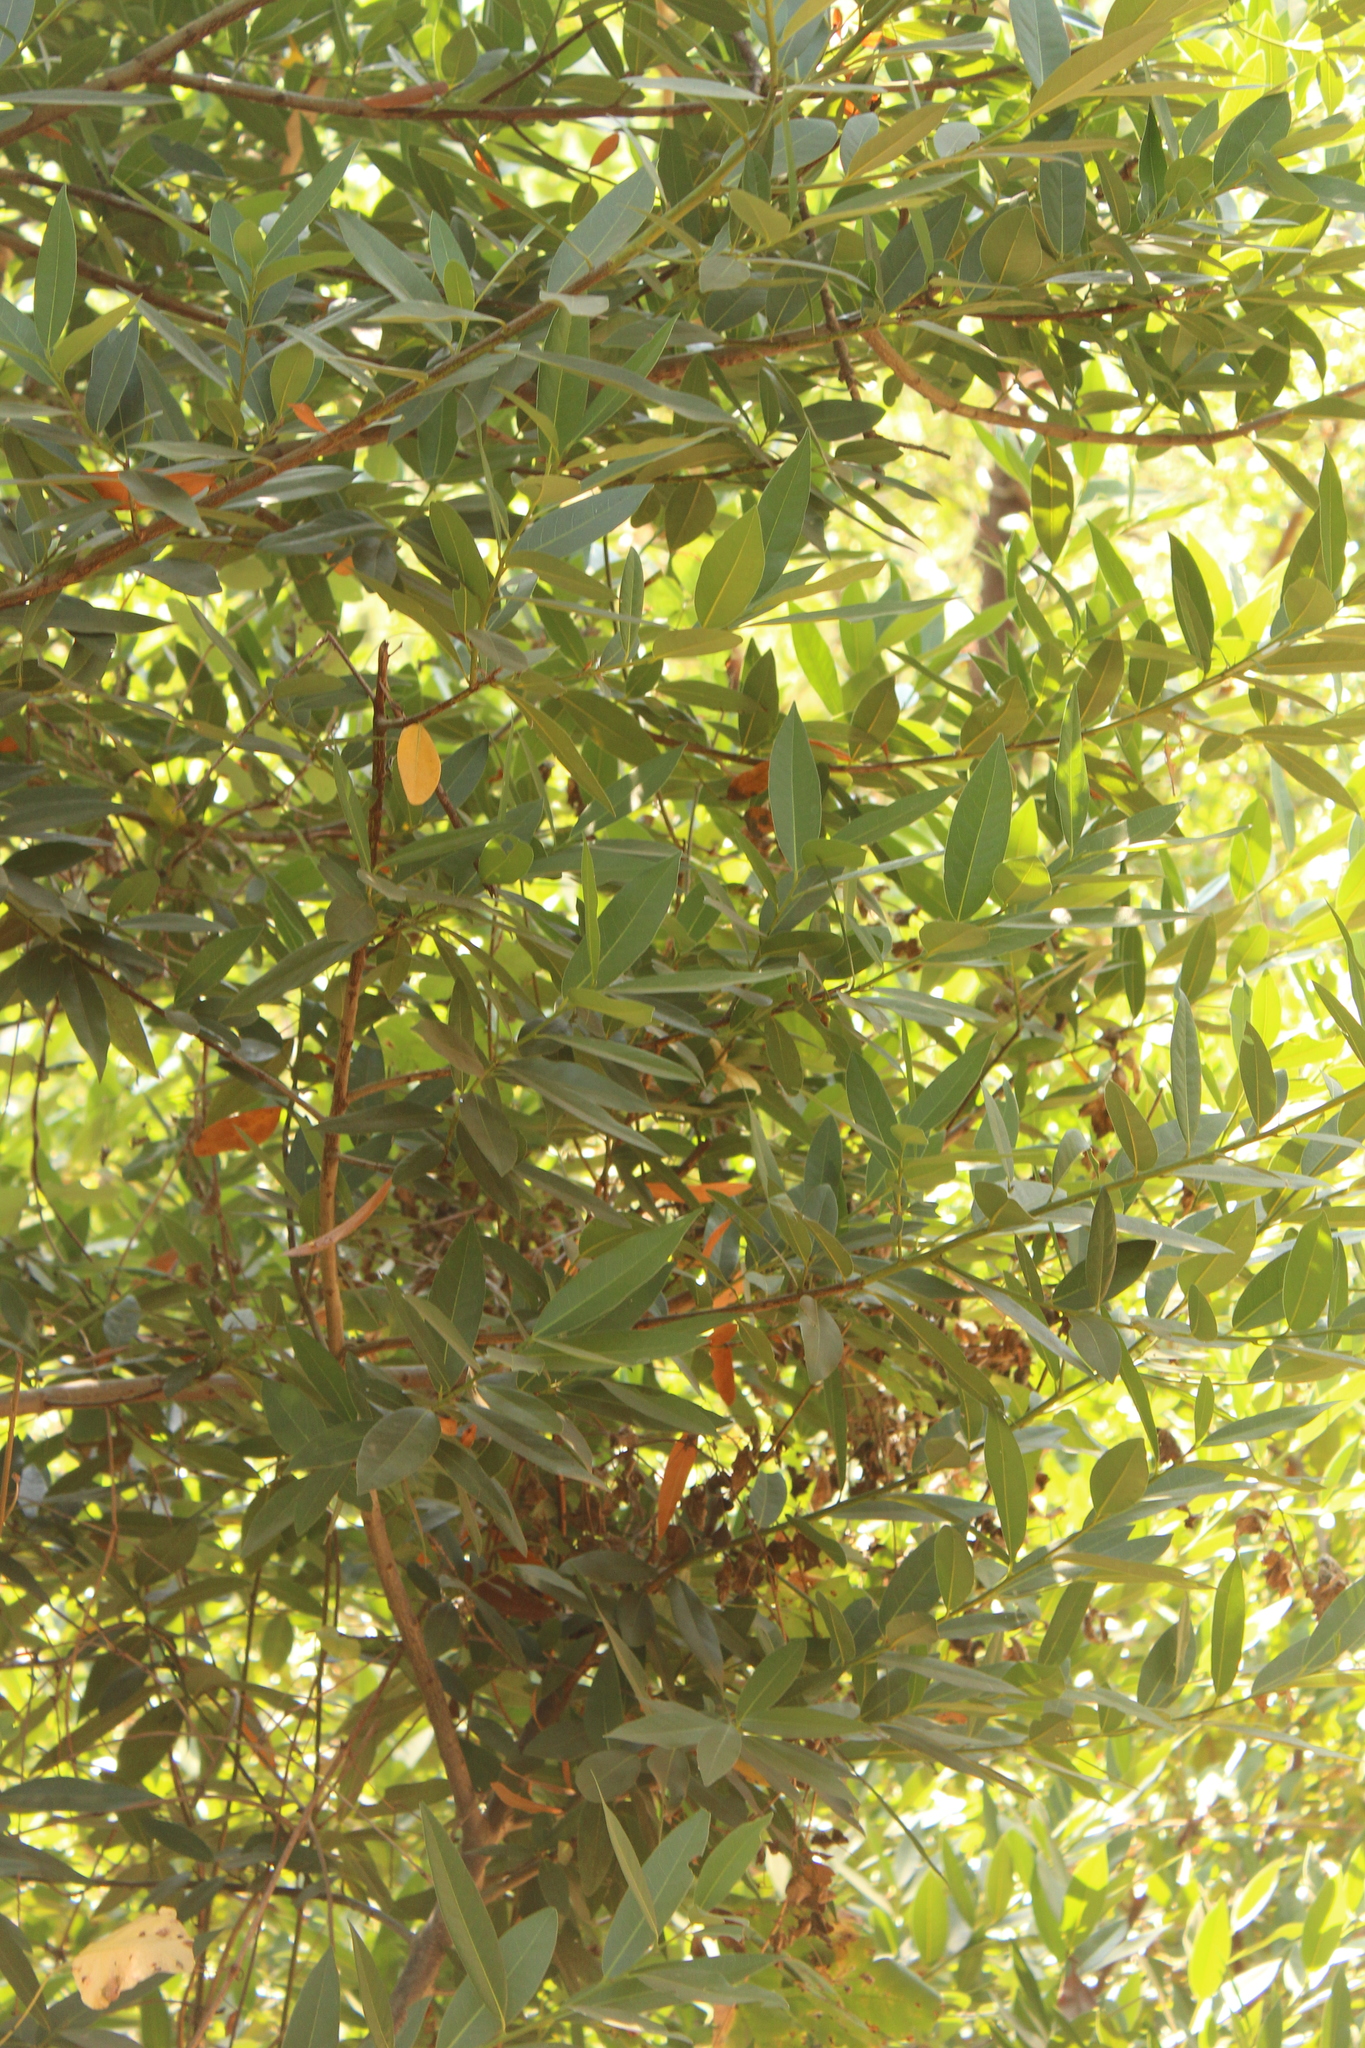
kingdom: Plantae
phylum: Tracheophyta
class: Magnoliopsida
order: Laurales
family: Lauraceae
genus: Umbellularia
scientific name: Umbellularia californica
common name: California bay
